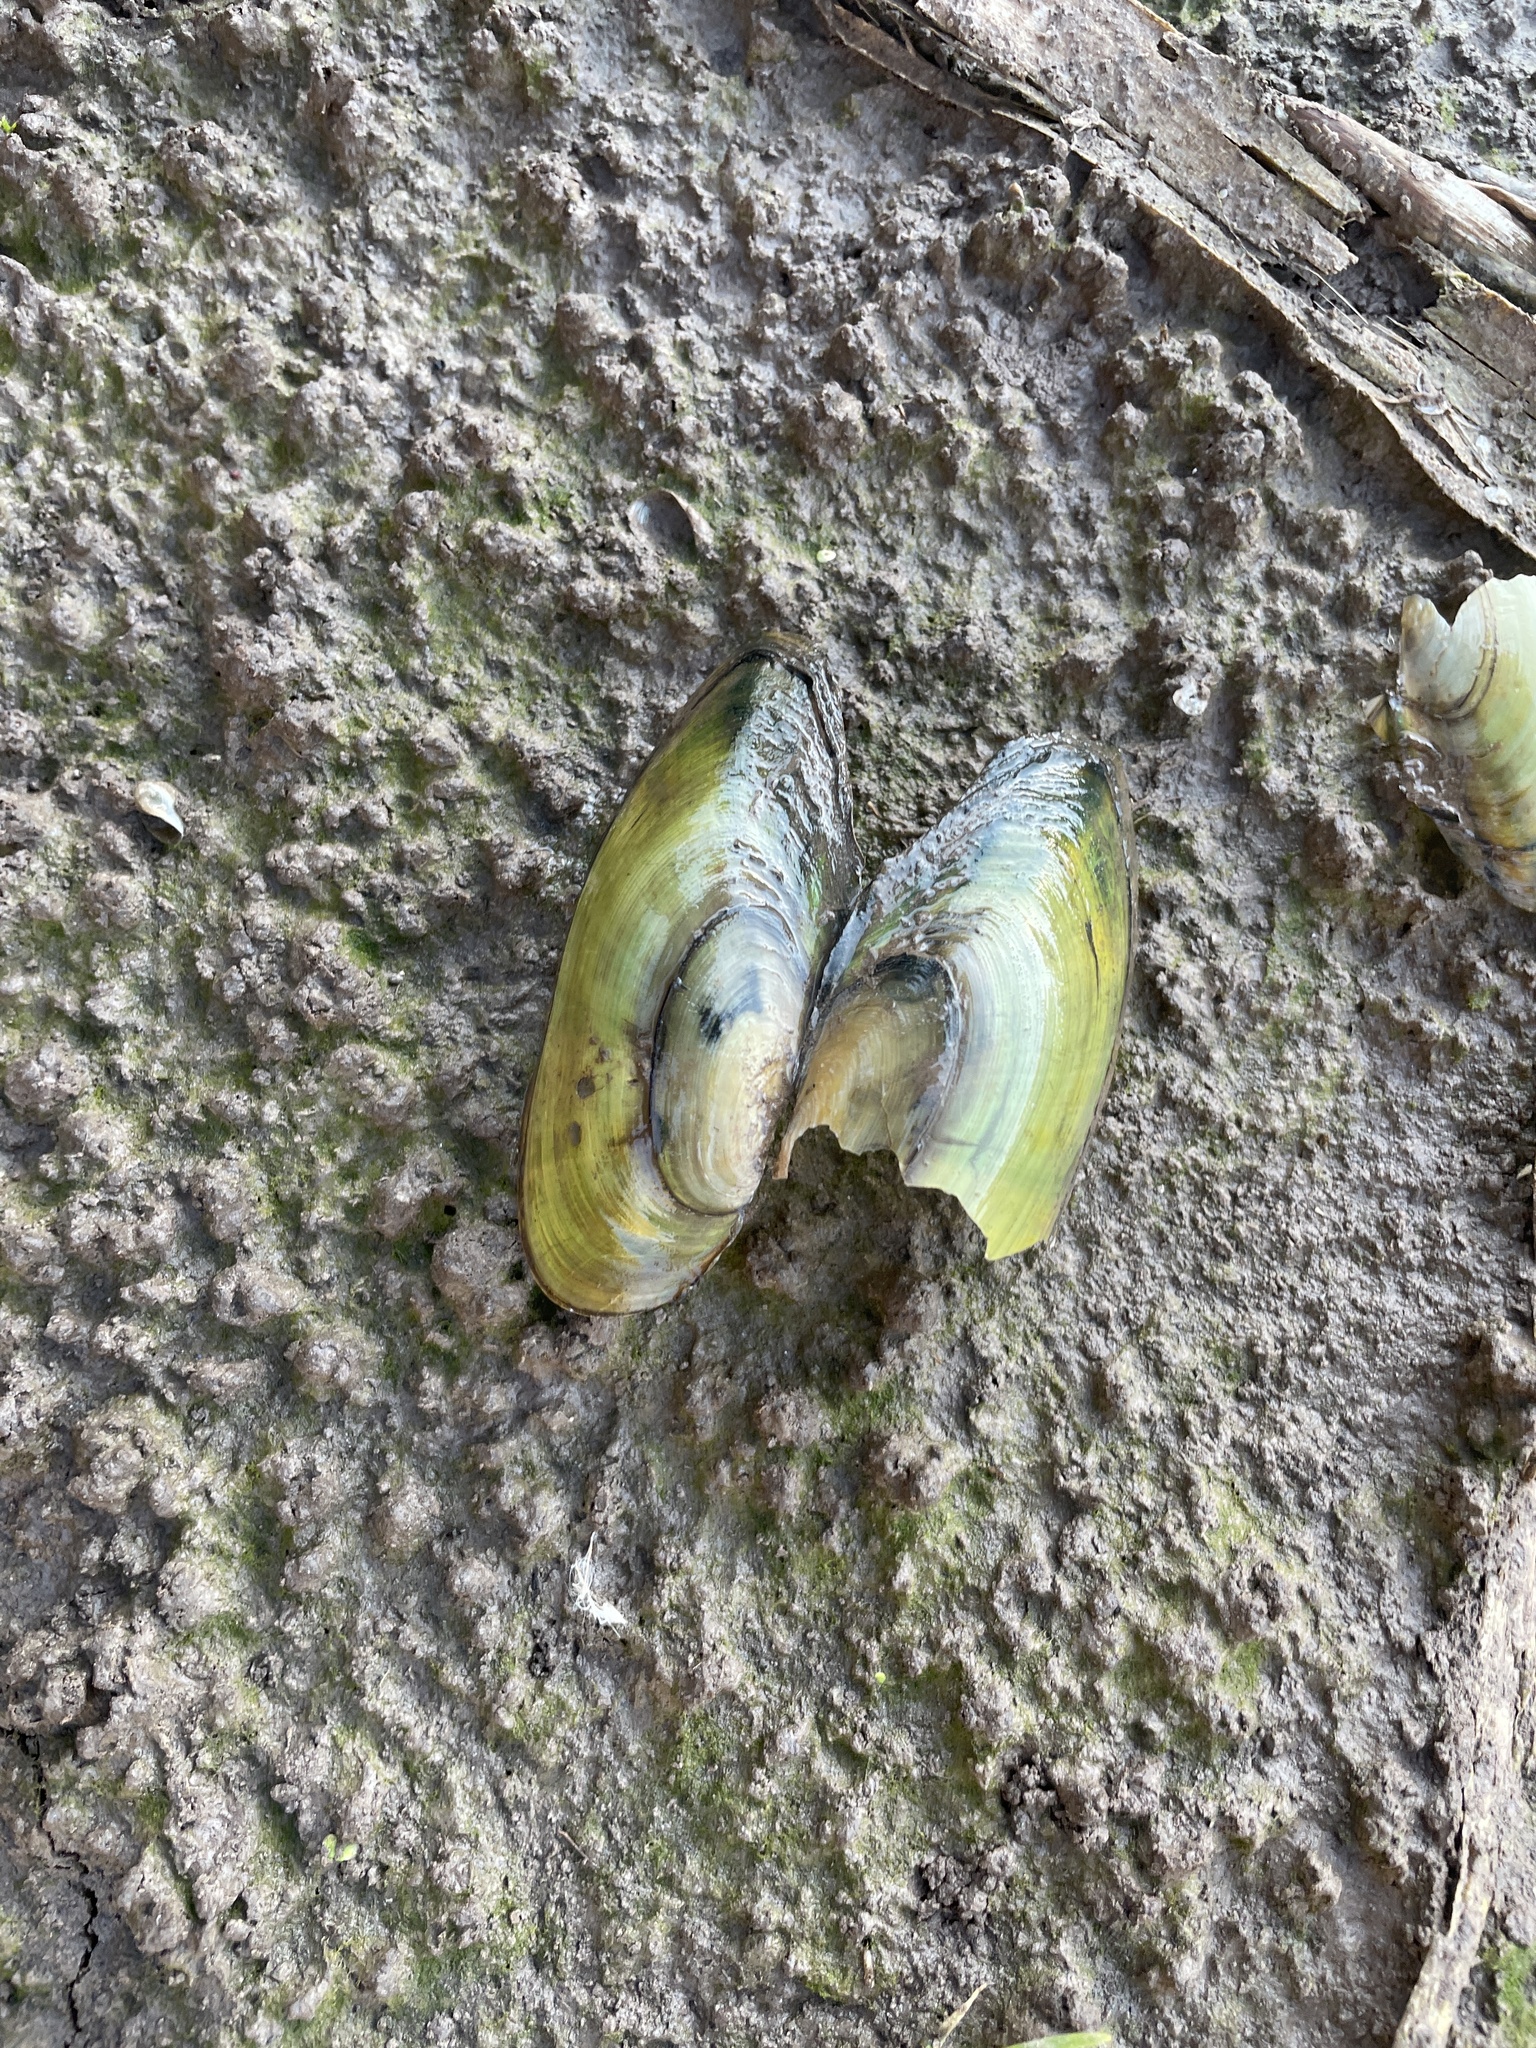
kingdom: Animalia
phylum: Mollusca
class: Bivalvia
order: Unionida
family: Unionidae
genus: Utterbackia
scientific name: Utterbackia imbecillis
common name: Paper pondshell
